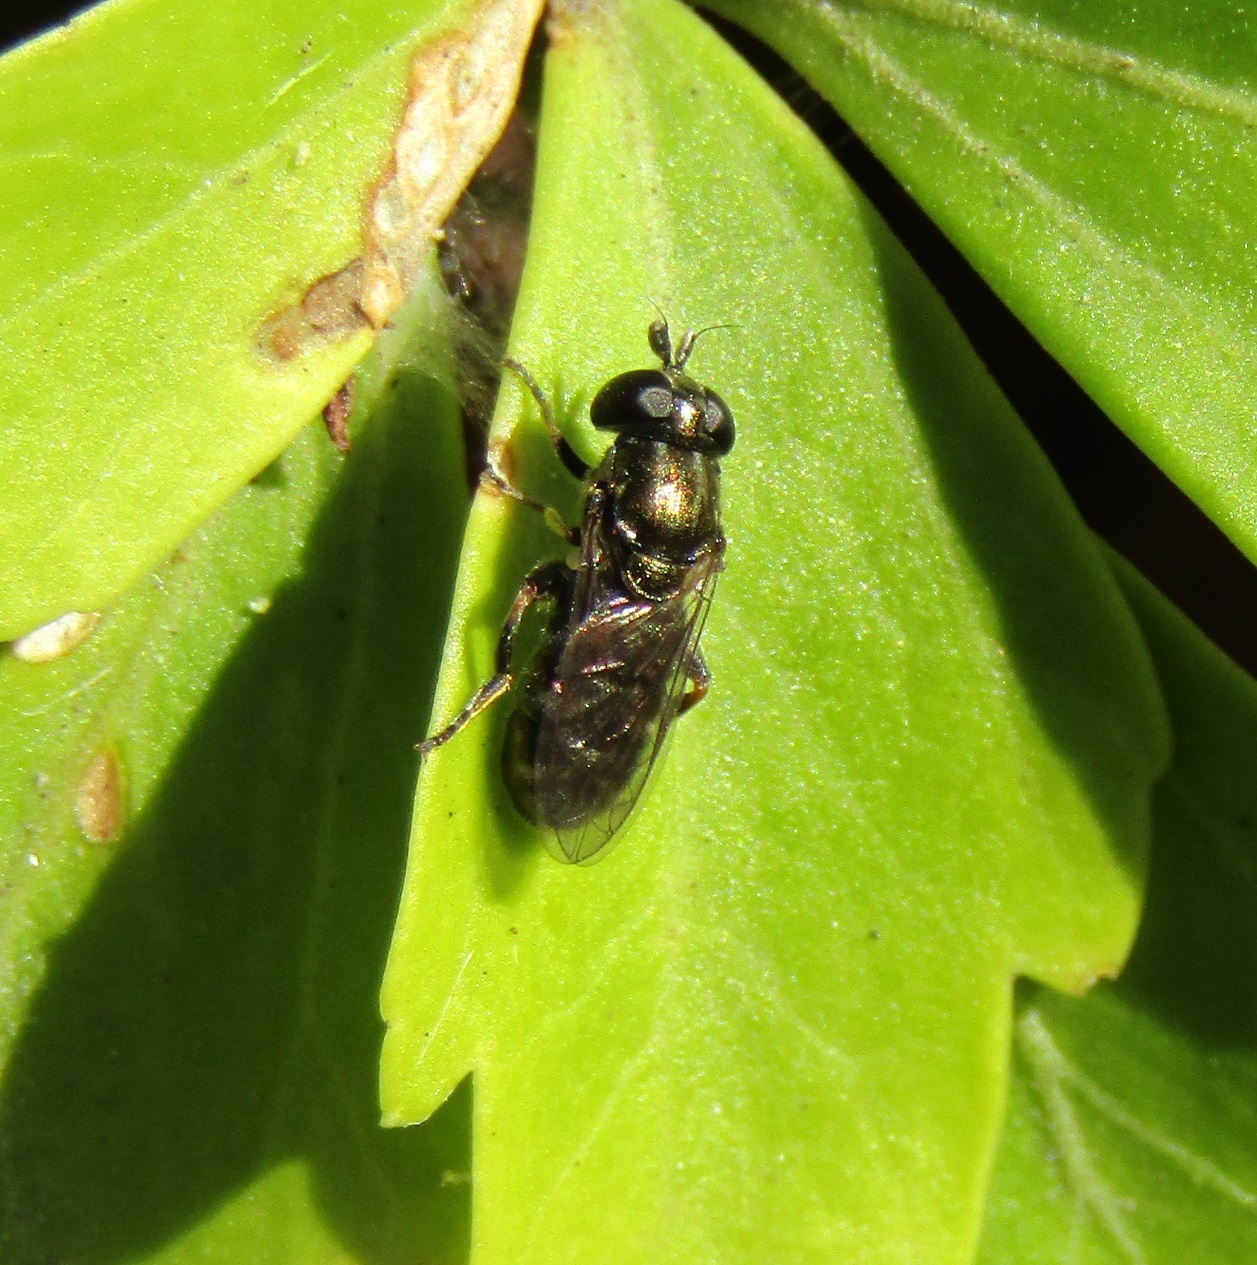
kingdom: Animalia
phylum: Arthropoda
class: Insecta
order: Diptera
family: Syrphidae
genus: Eumerus
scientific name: Eumerus
